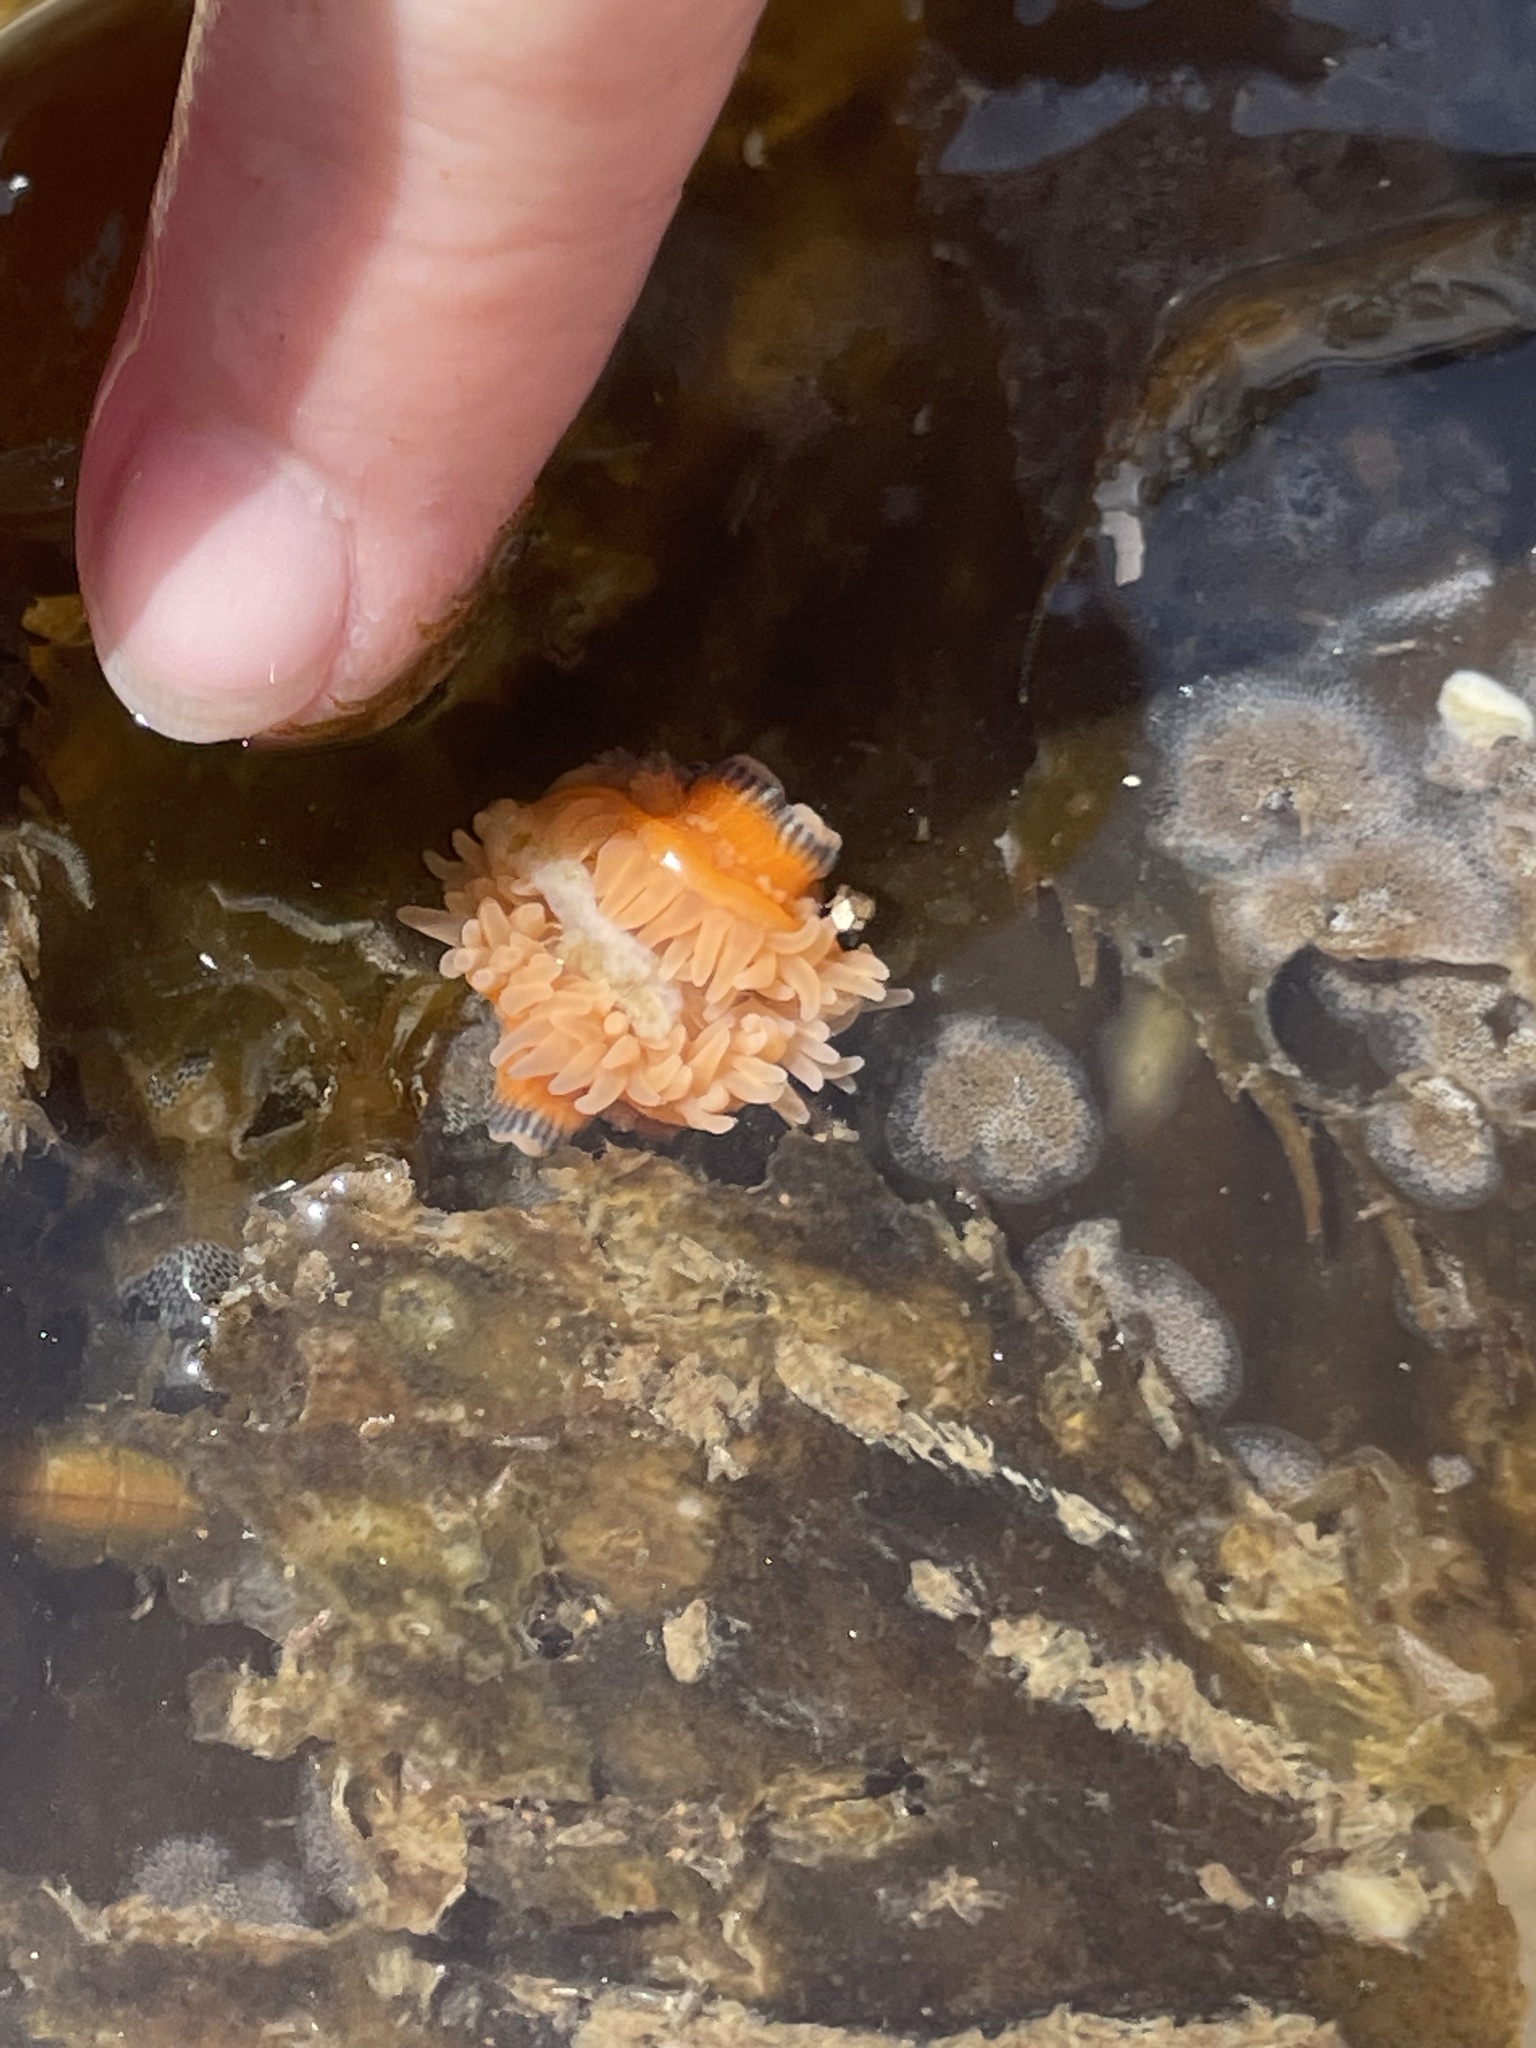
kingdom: Animalia
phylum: Cnidaria
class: Anthozoa
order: Actiniaria
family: Actiniidae
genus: Epiactis
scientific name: Epiactis prolifera
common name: Brooding anemone
